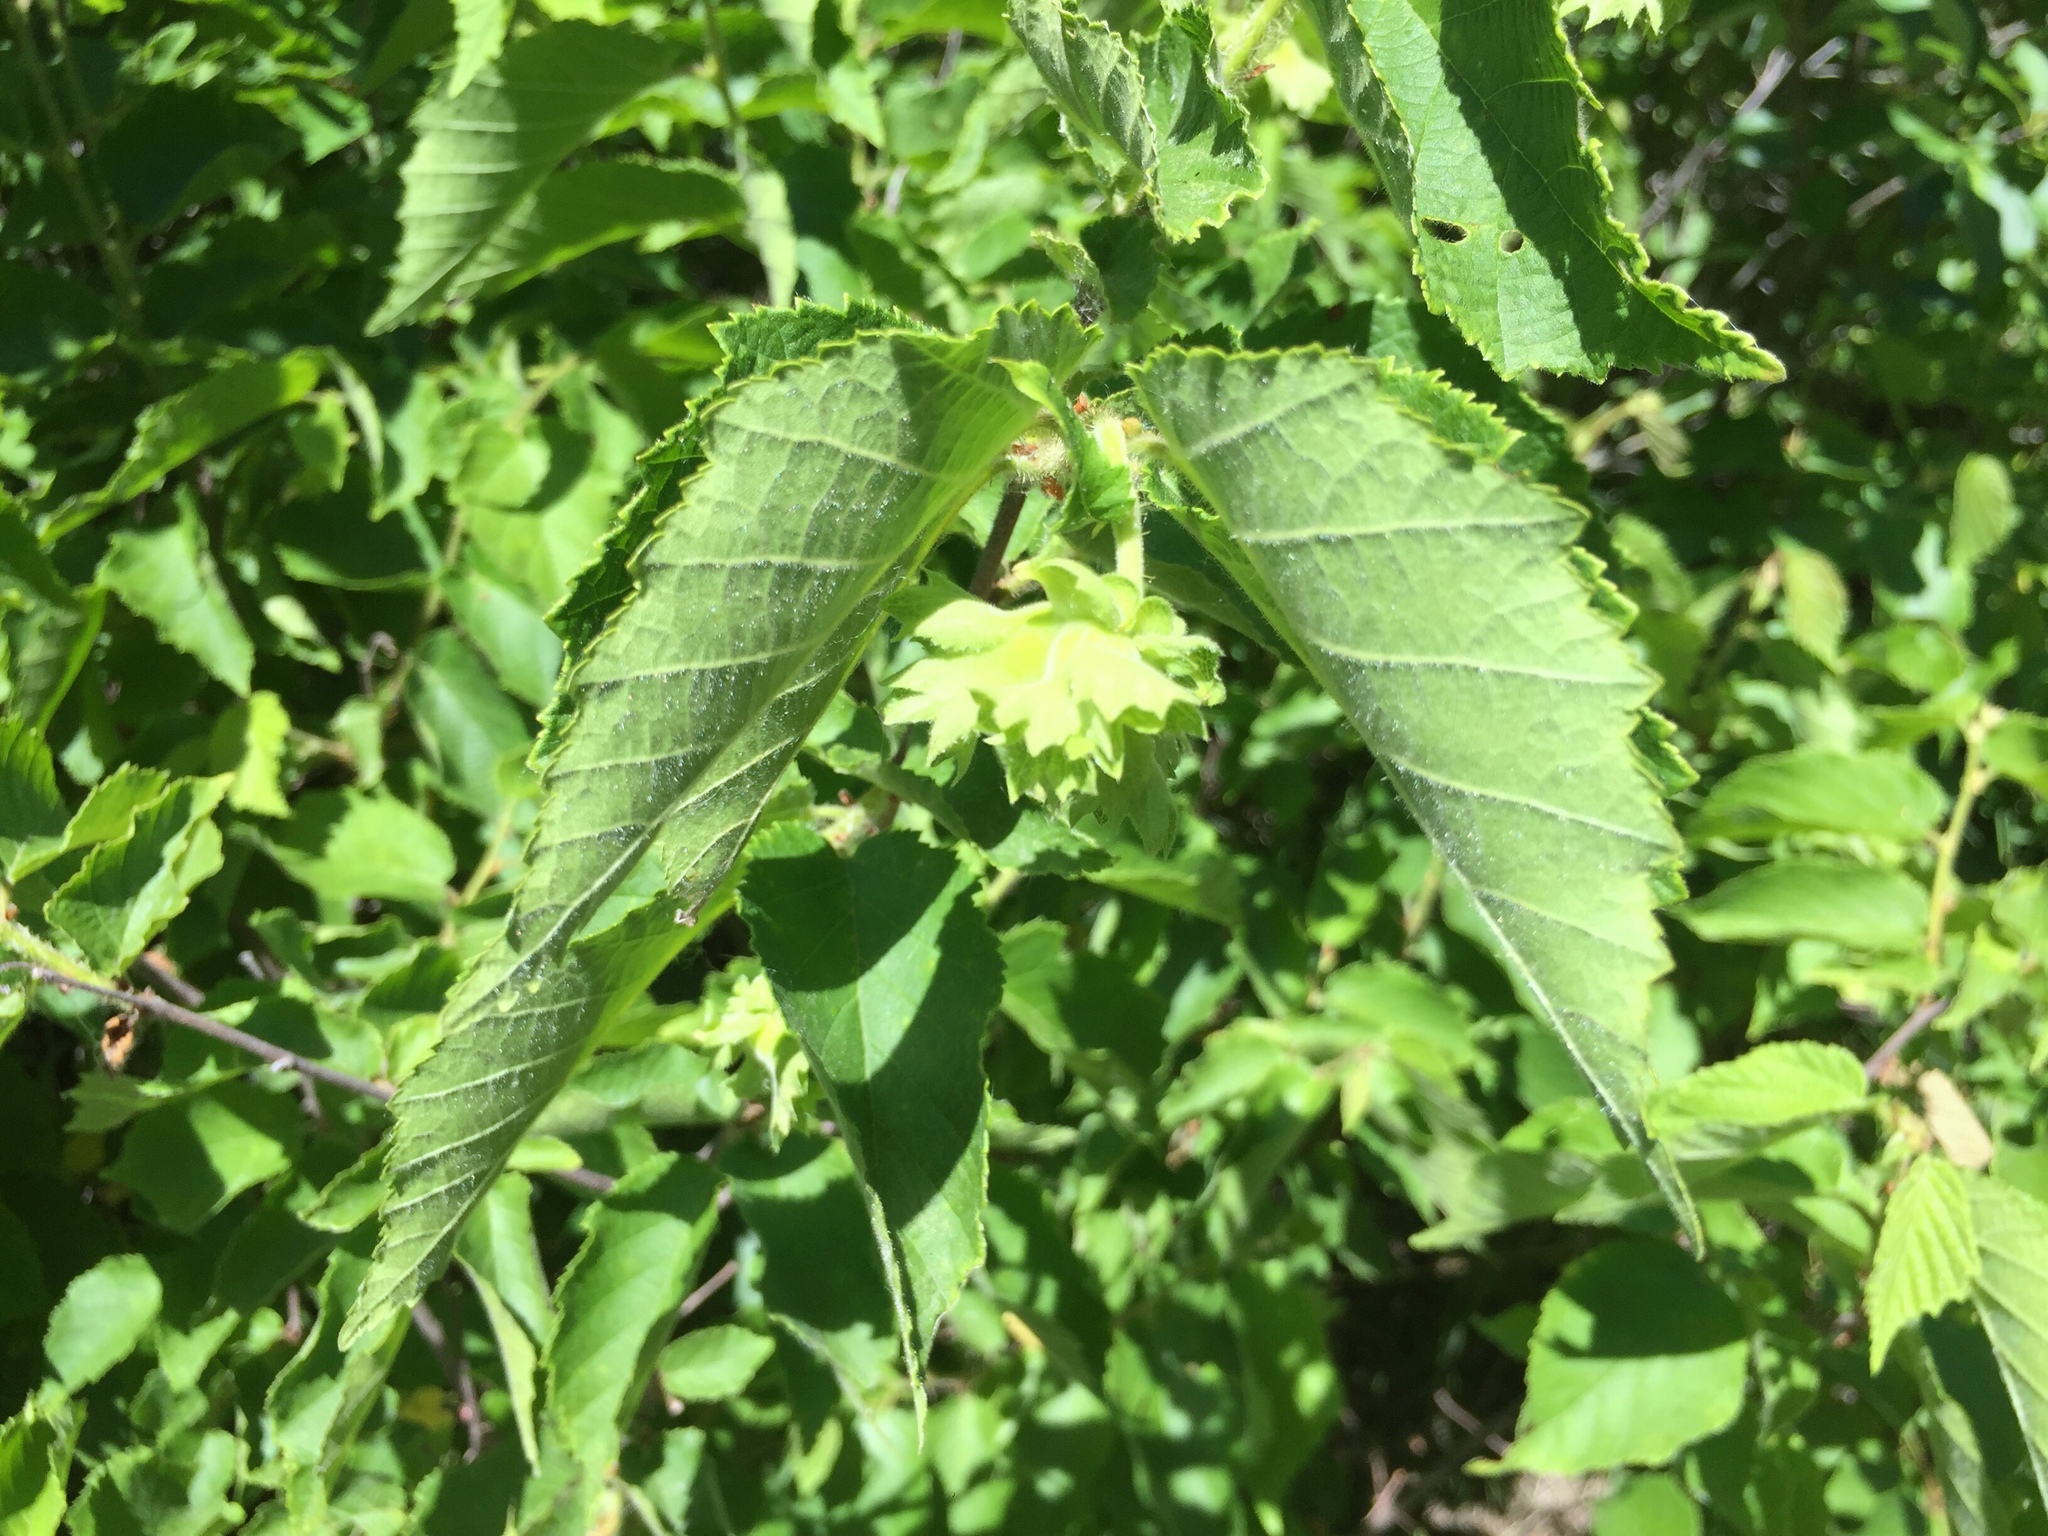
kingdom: Plantae
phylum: Tracheophyta
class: Magnoliopsida
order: Fagales
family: Betulaceae
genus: Corylus
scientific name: Corylus americana
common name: American hazel
